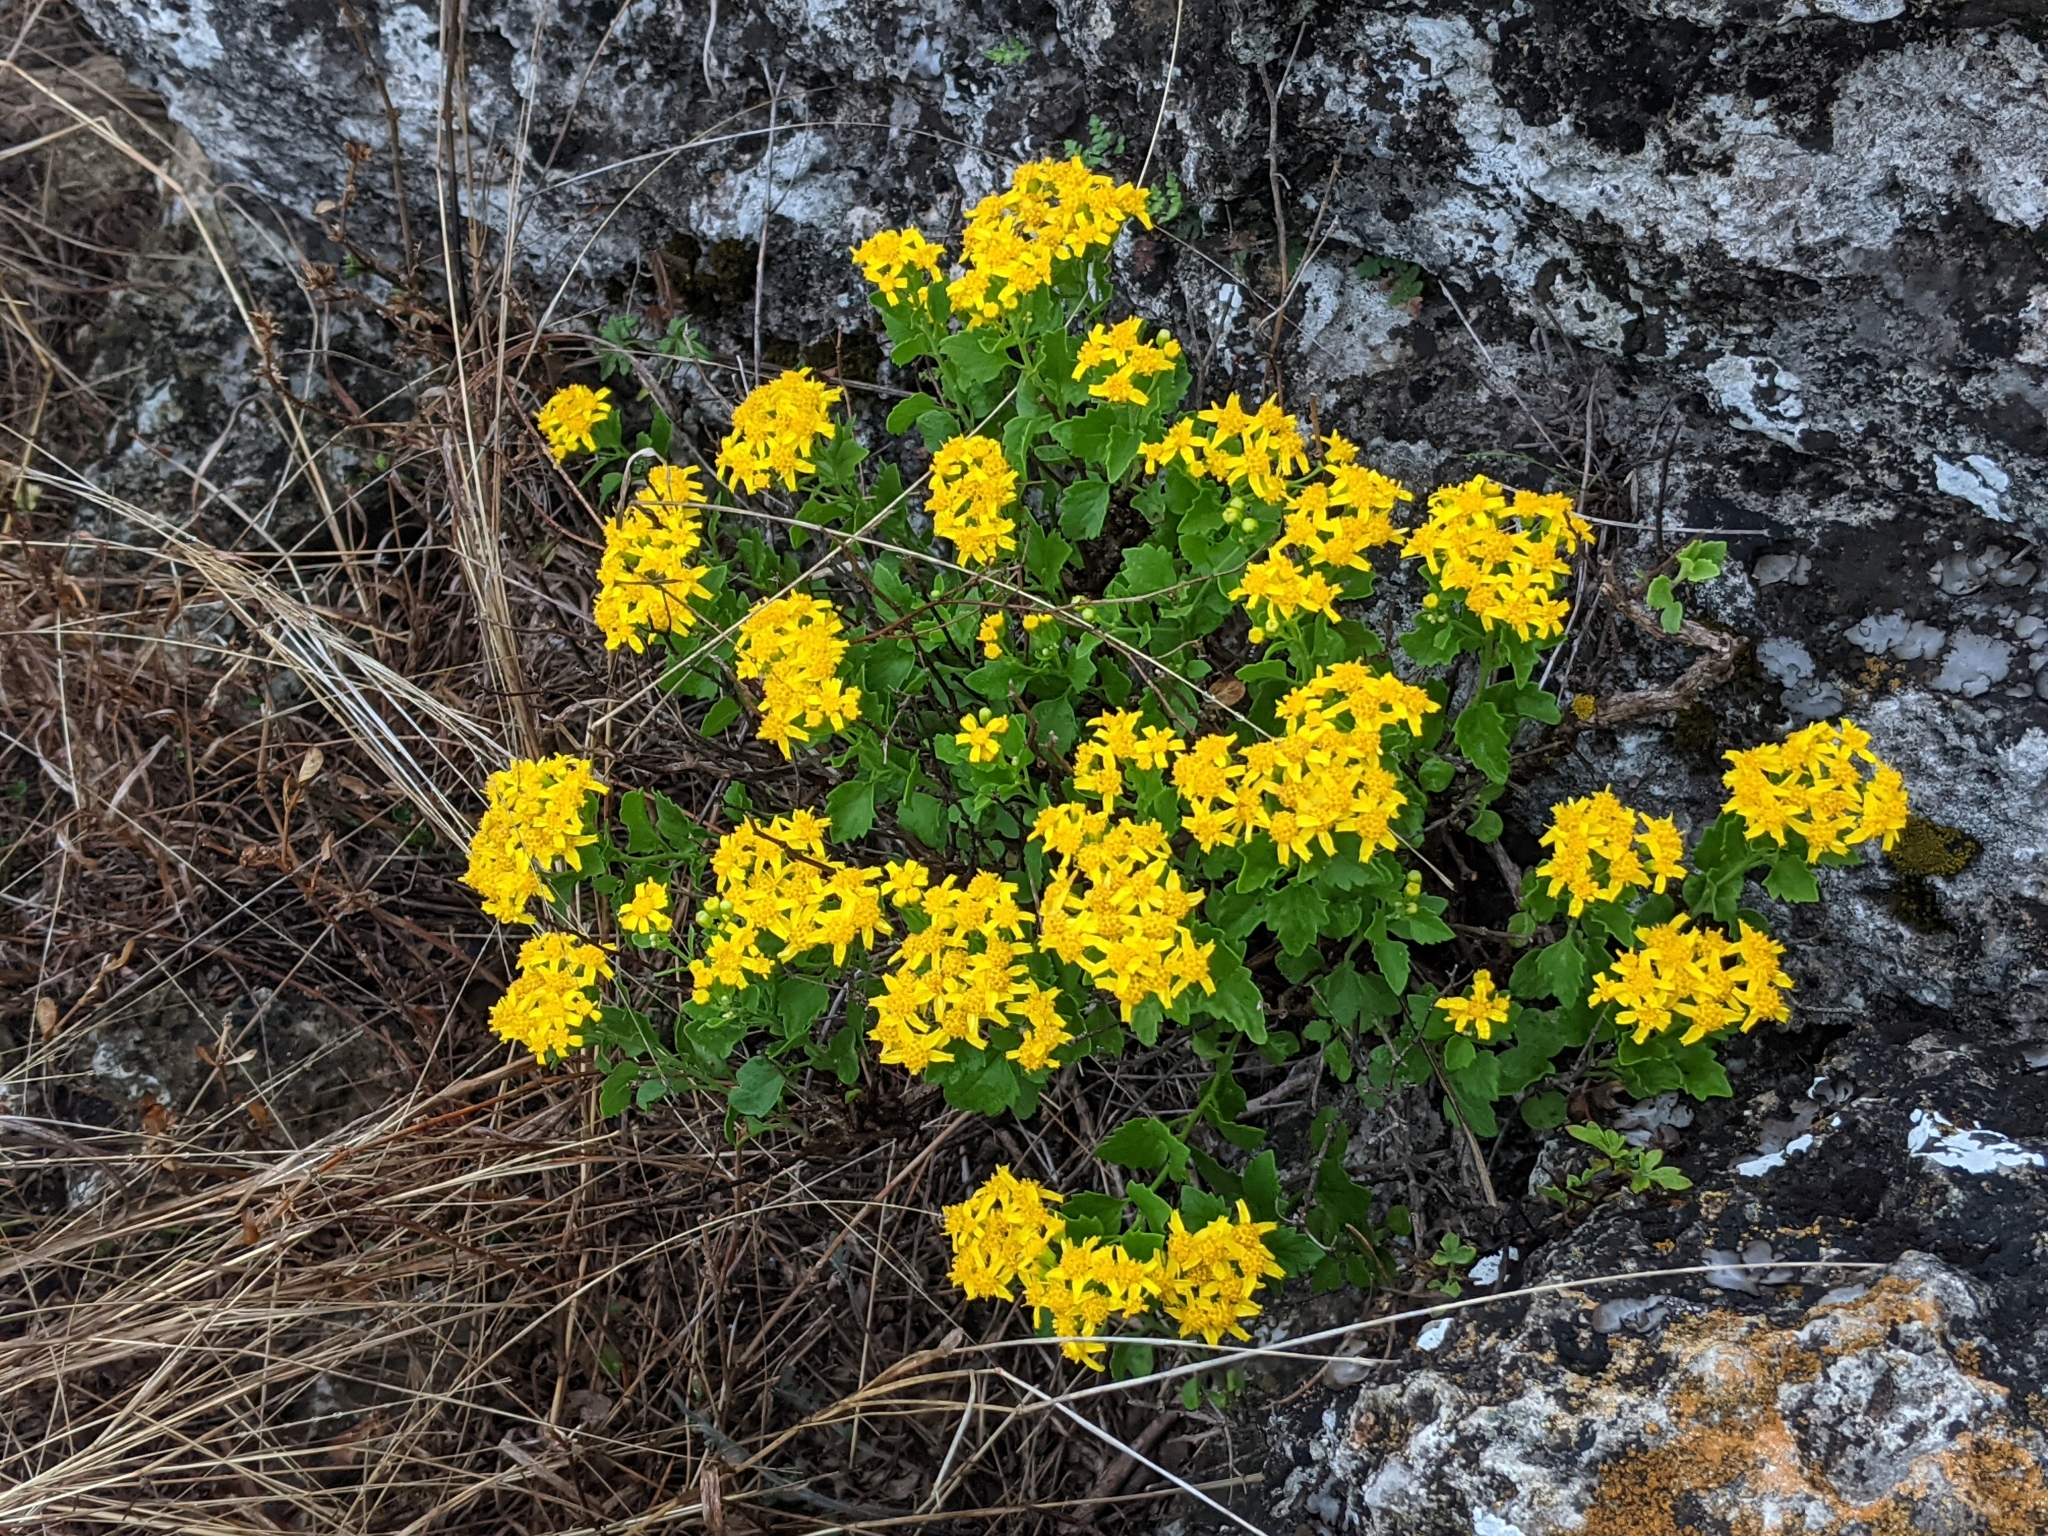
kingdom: Plantae
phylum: Tracheophyta
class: Magnoliopsida
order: Asterales
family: Asteraceae
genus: Laphamia
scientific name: Laphamia lindheimeri
